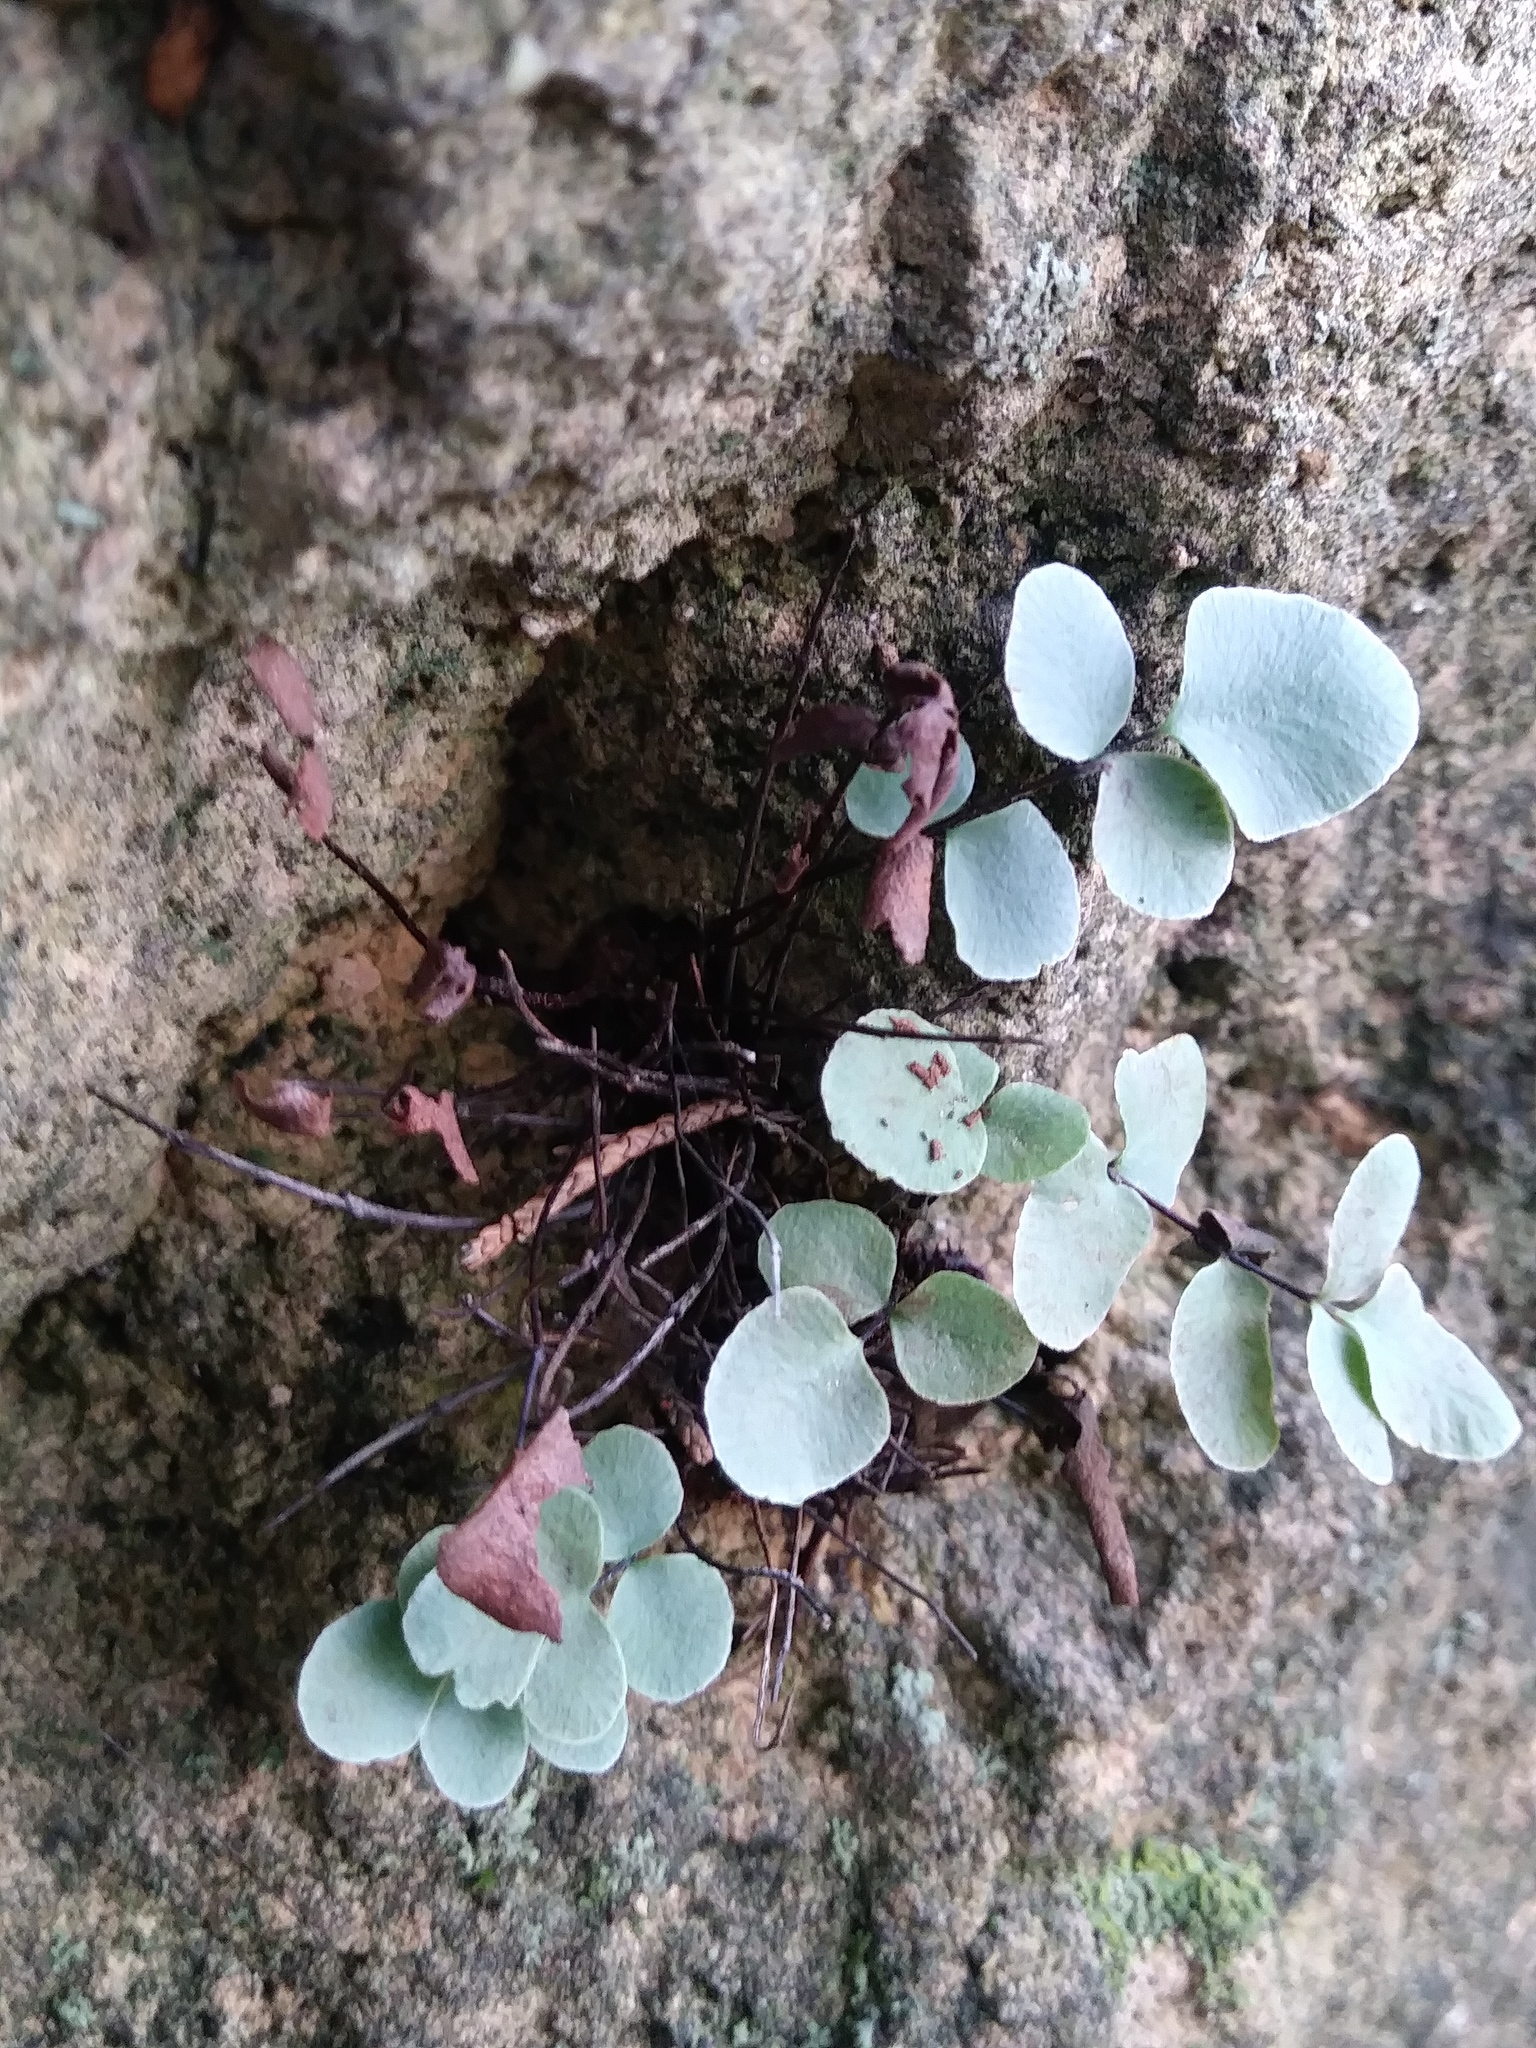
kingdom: Plantae
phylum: Tracheophyta
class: Polypodiopsida
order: Polypodiales
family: Pteridaceae
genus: Pellaea
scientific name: Pellaea glabella
